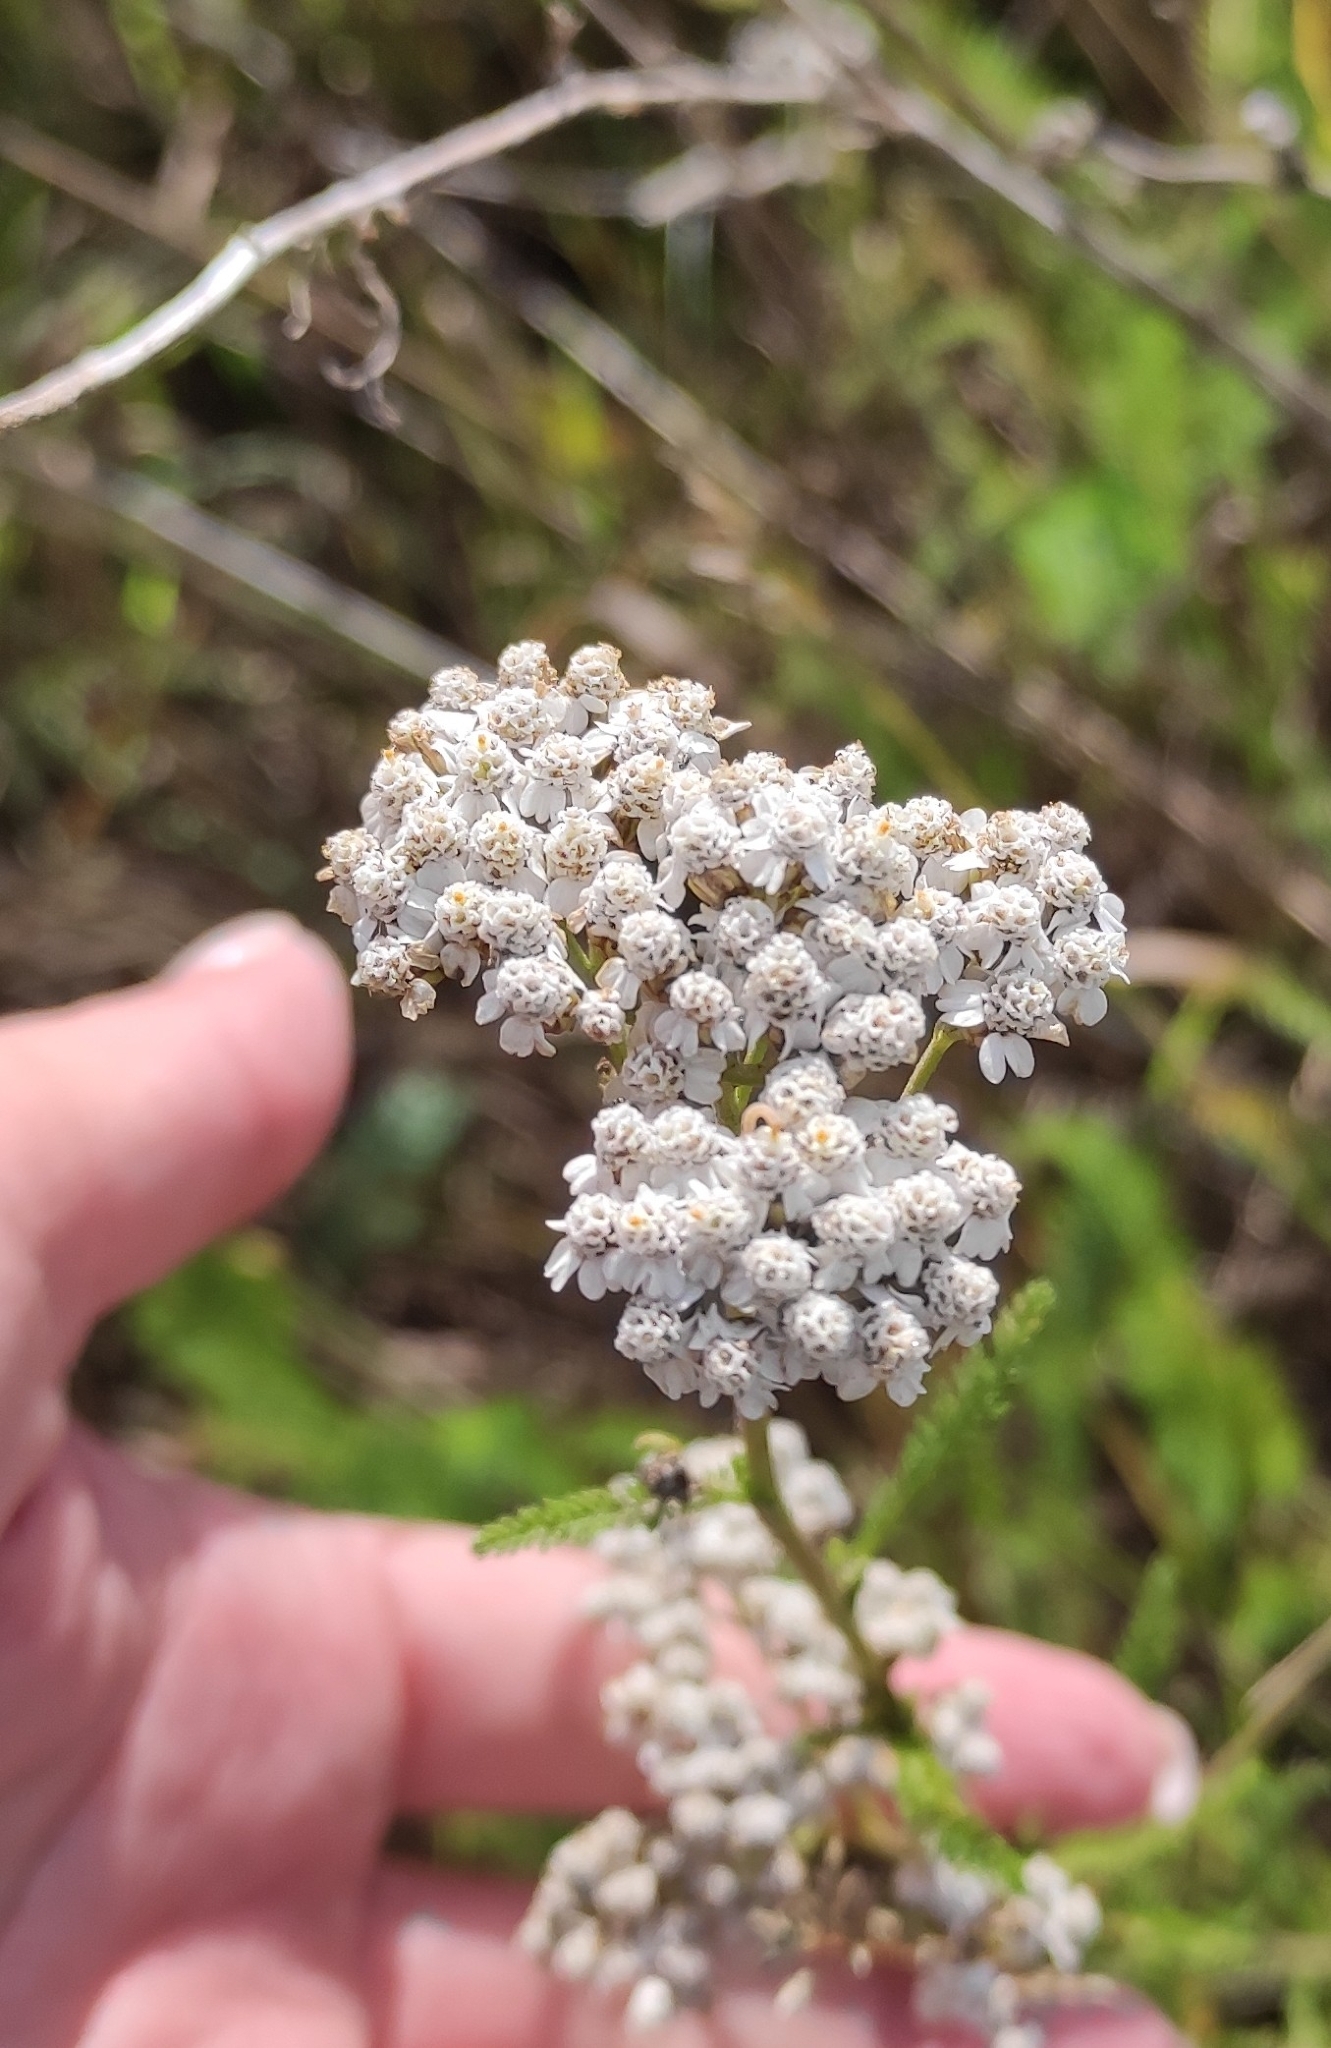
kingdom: Plantae
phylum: Tracheophyta
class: Magnoliopsida
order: Asterales
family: Asteraceae
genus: Achillea
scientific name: Achillea millefolium
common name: Yarrow
